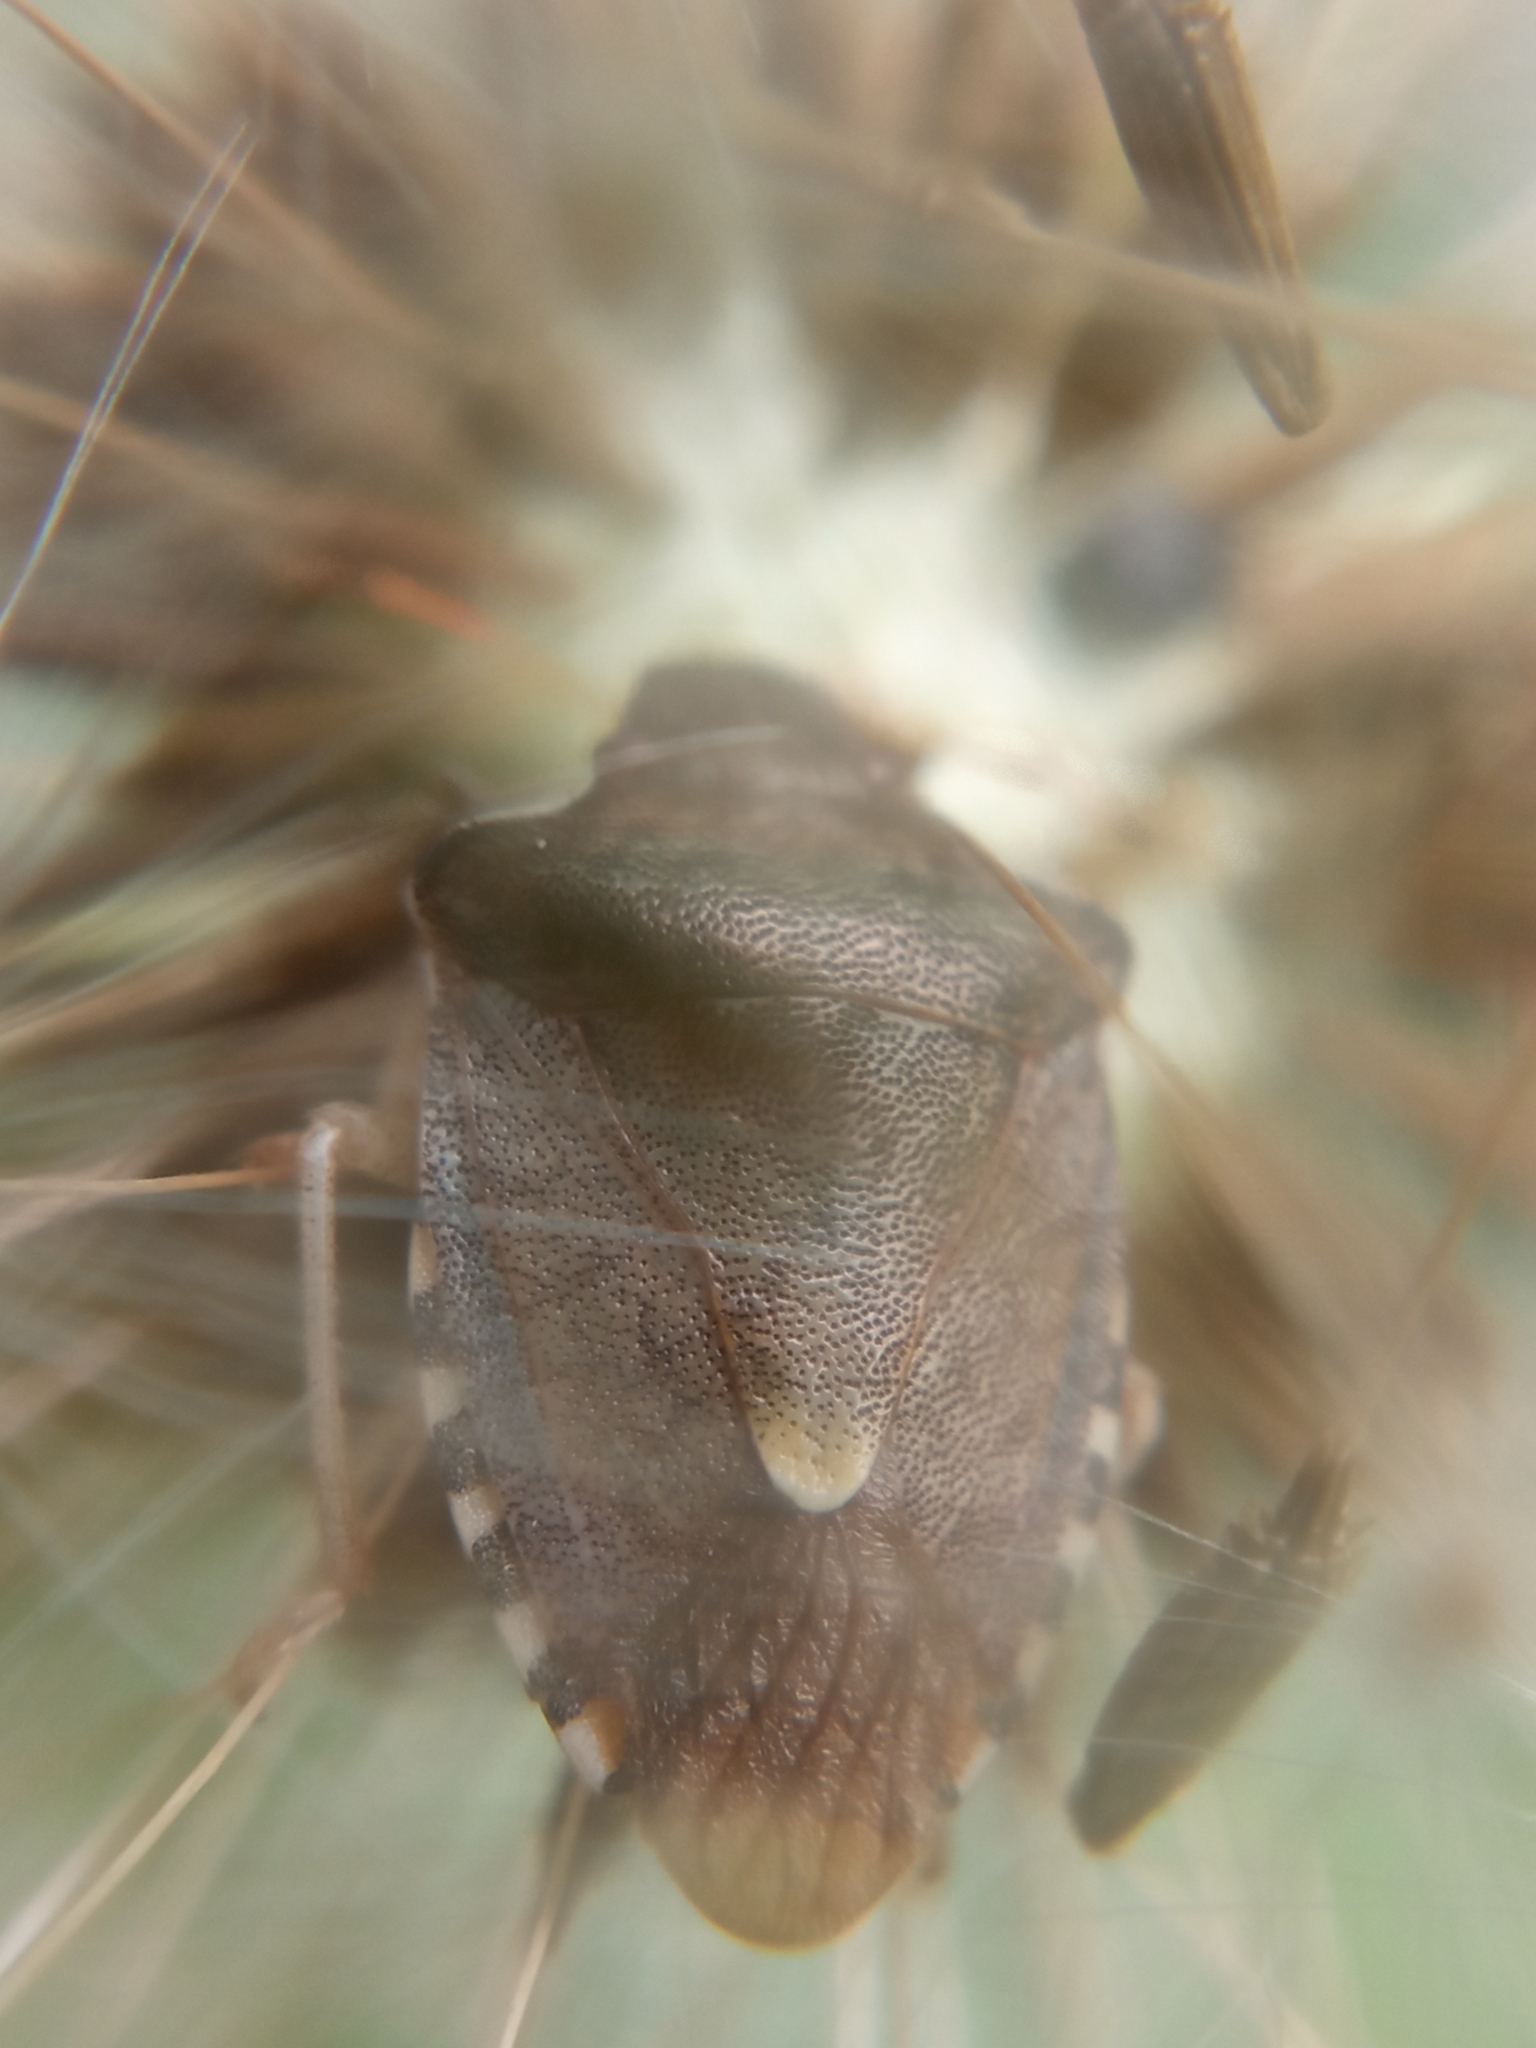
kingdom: Animalia
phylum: Arthropoda
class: Insecta
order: Hemiptera
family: Pentatomidae
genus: Holcostethus
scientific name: Holcostethus strictus
